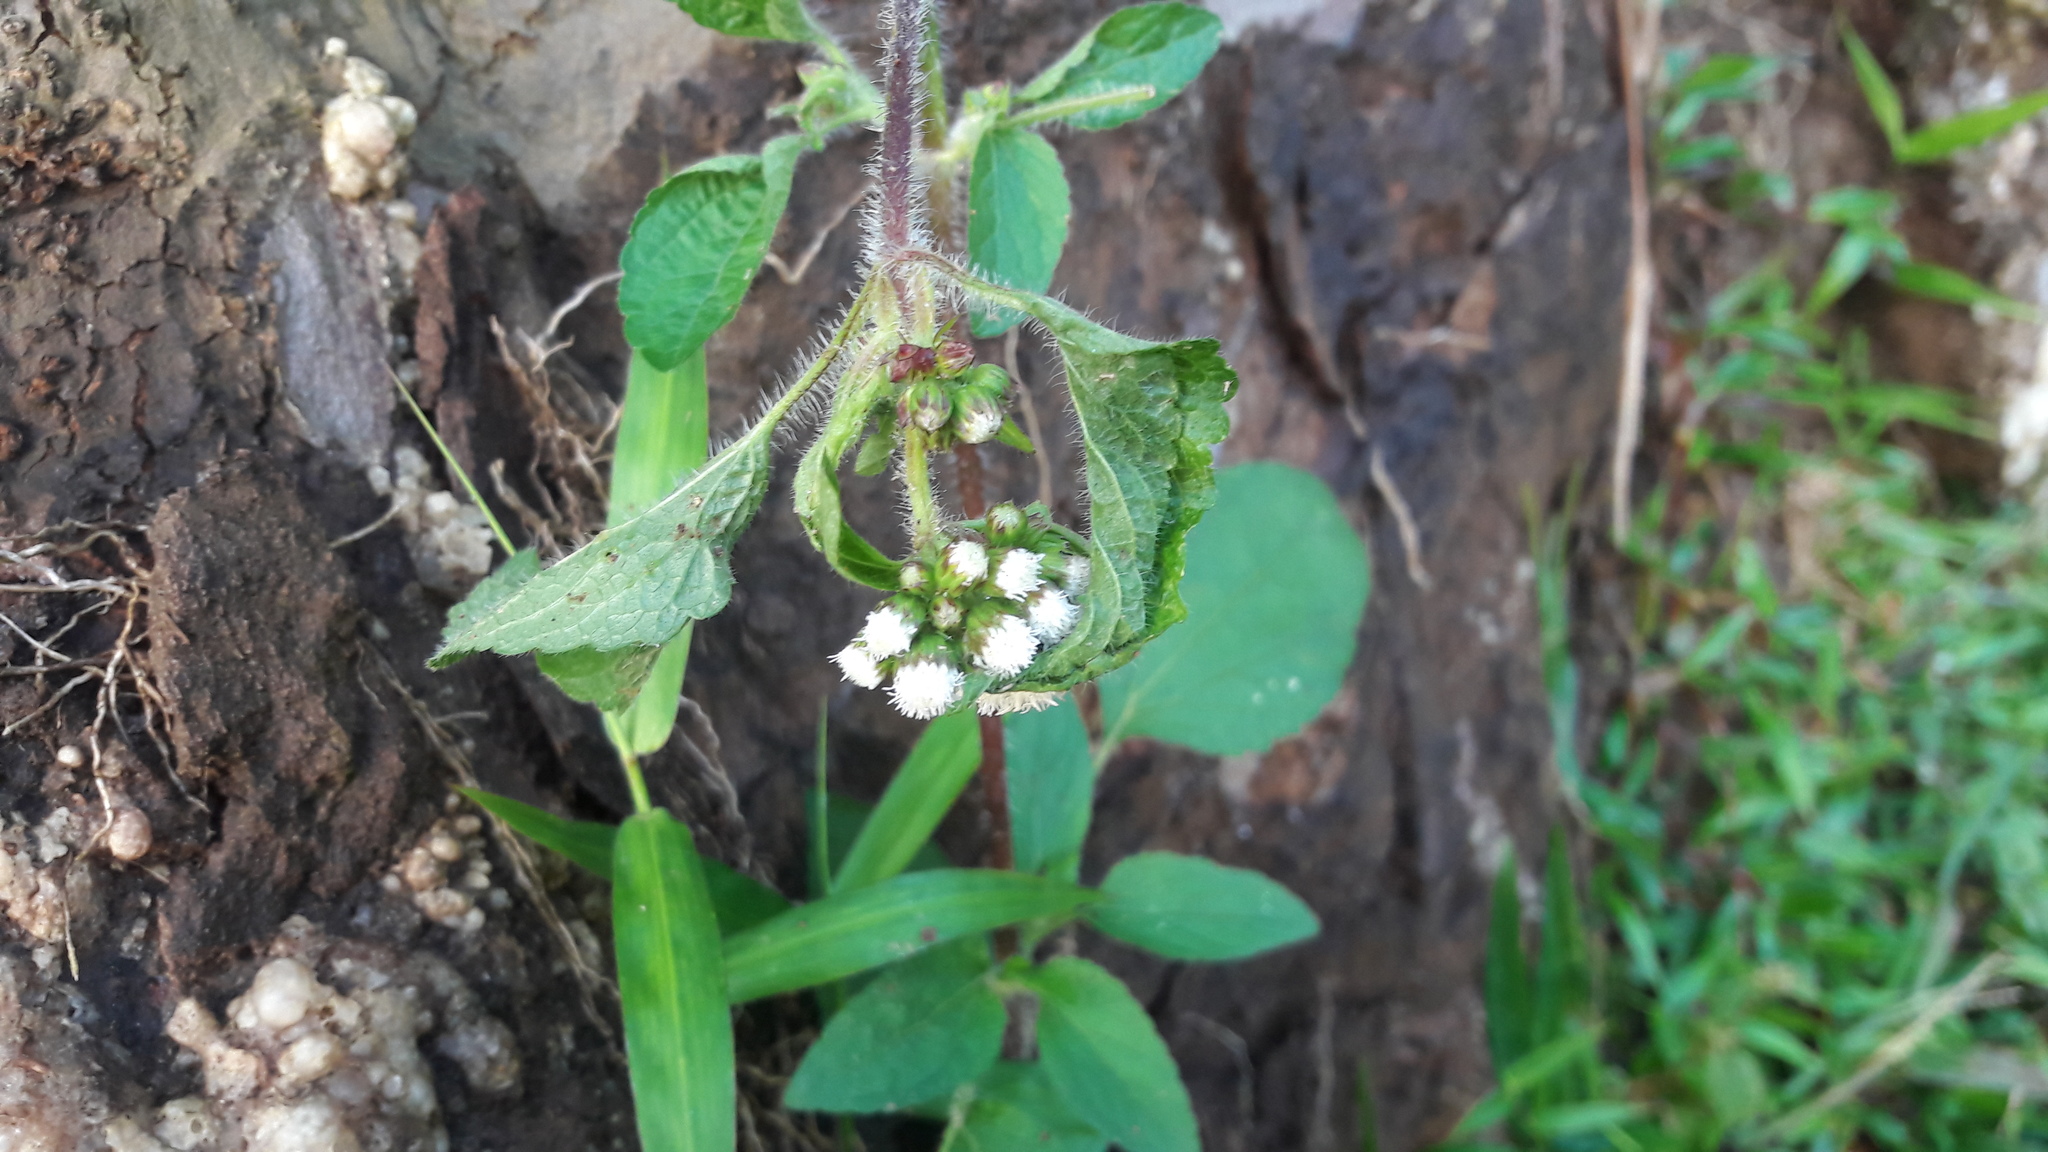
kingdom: Plantae
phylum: Tracheophyta
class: Magnoliopsida
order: Asterales
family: Asteraceae
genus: Ageratum
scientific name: Ageratum conyzoides
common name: Tropical whiteweed
